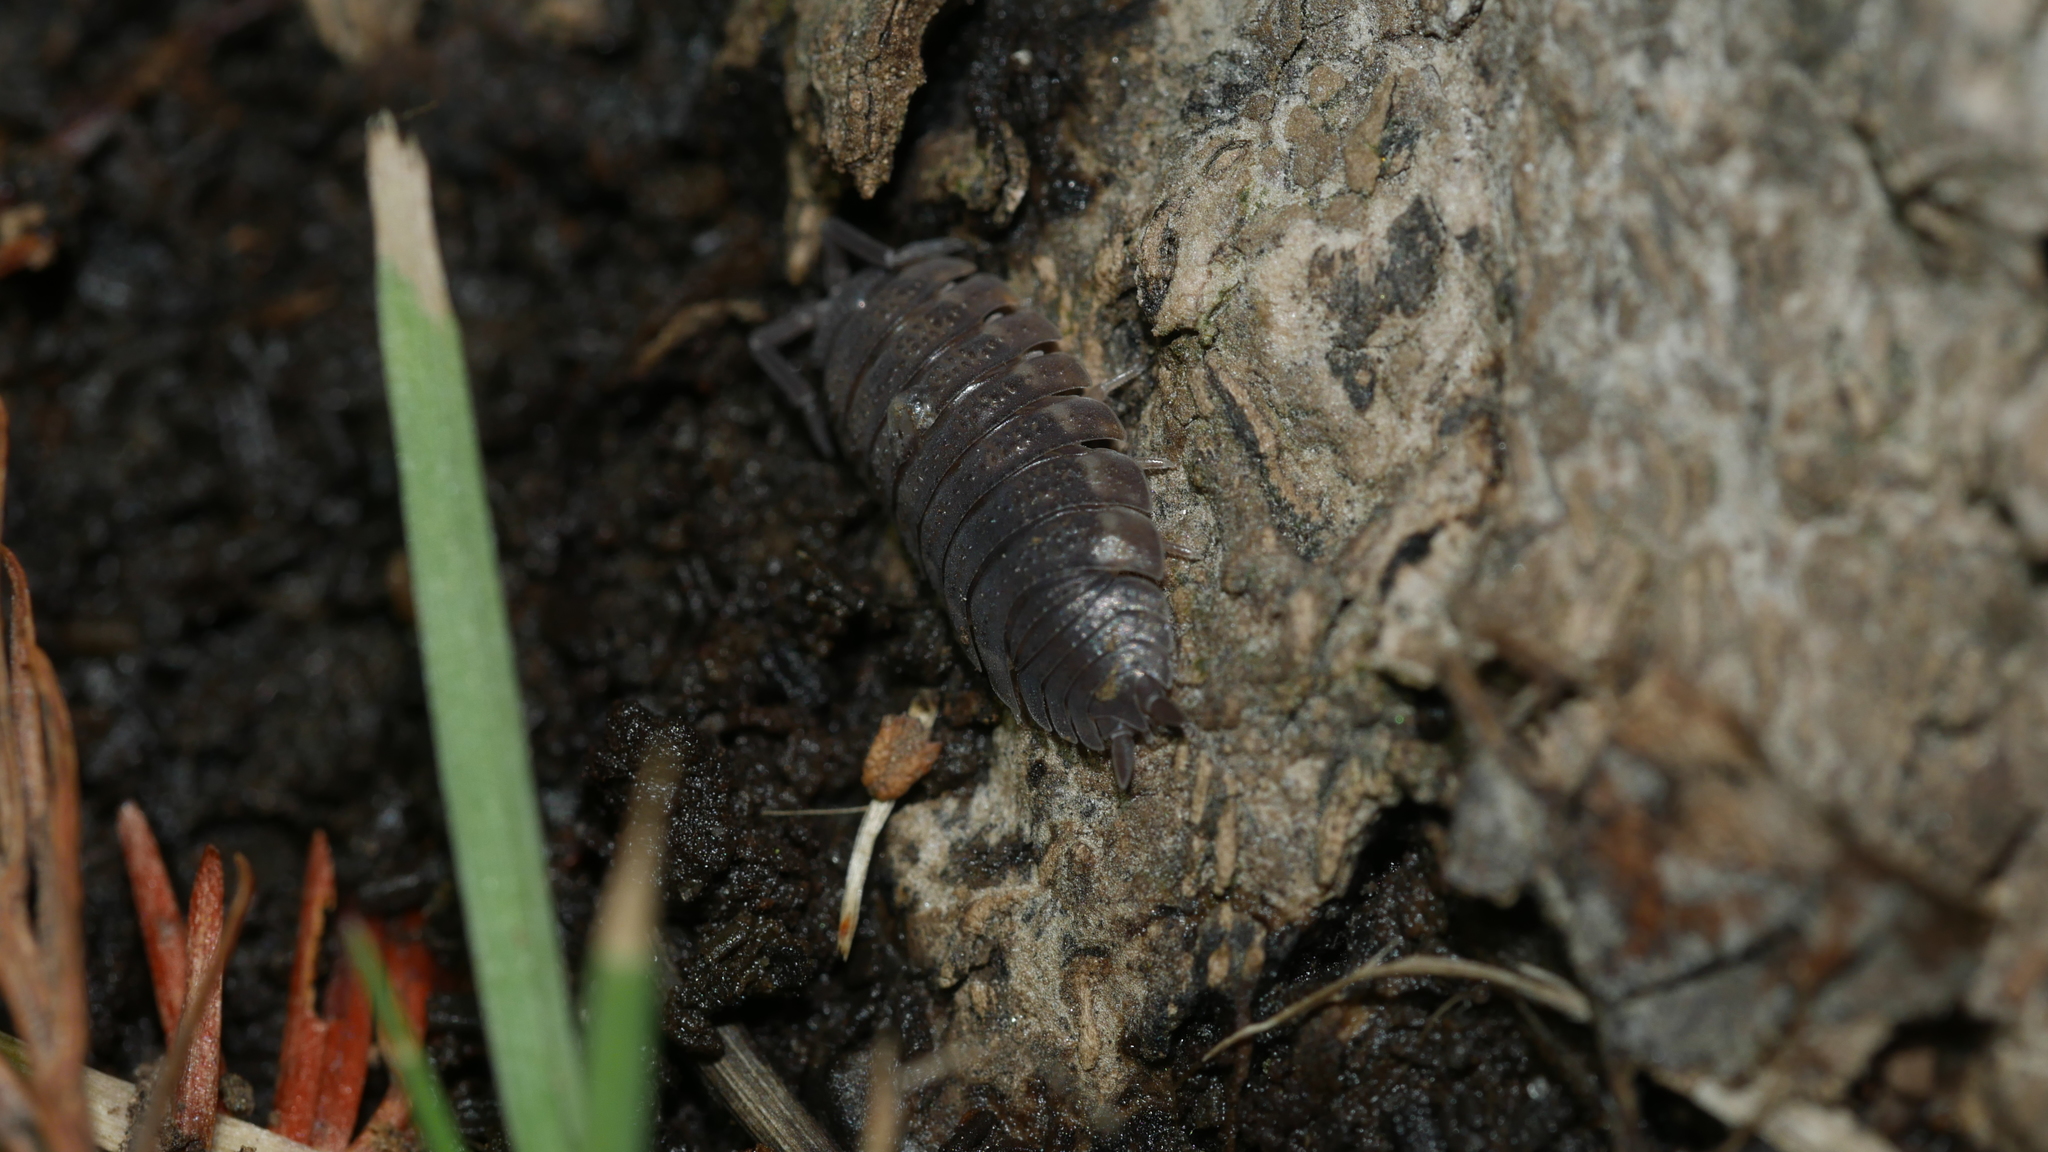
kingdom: Animalia
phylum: Arthropoda
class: Malacostraca
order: Isopoda
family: Porcellionidae
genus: Porcellio
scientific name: Porcellio scaber
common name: Common rough woodlouse
